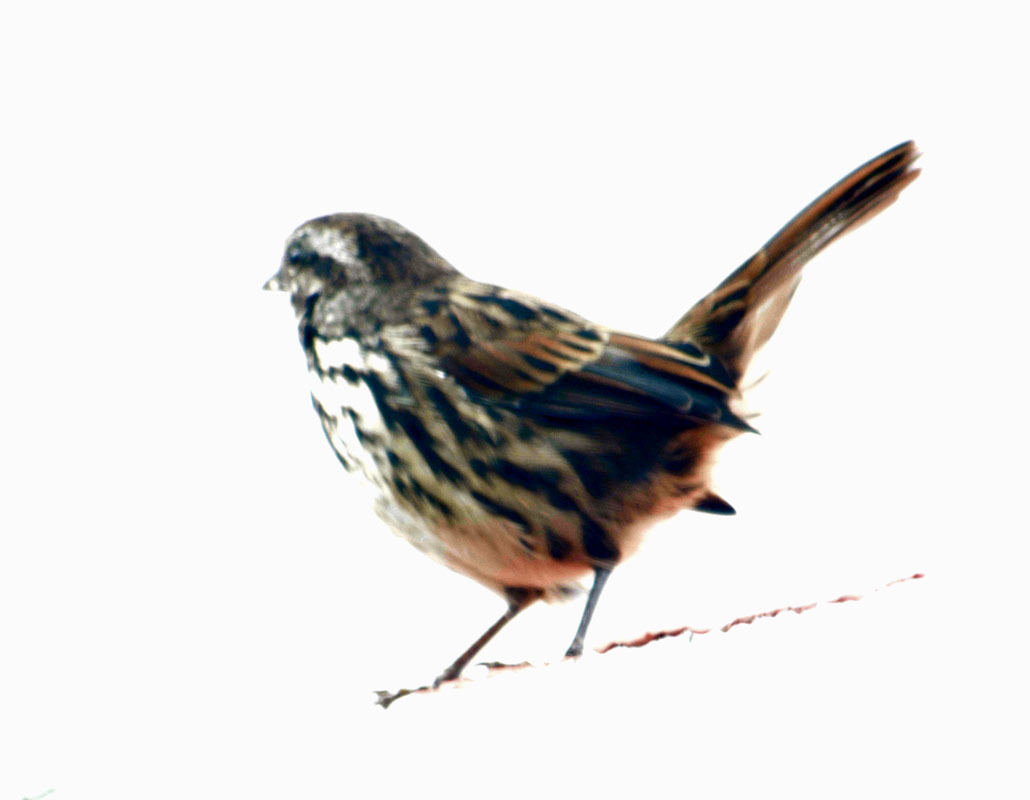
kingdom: Animalia
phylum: Chordata
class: Aves
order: Passeriformes
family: Passerellidae
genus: Melospiza
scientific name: Melospiza melodia
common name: Song sparrow
